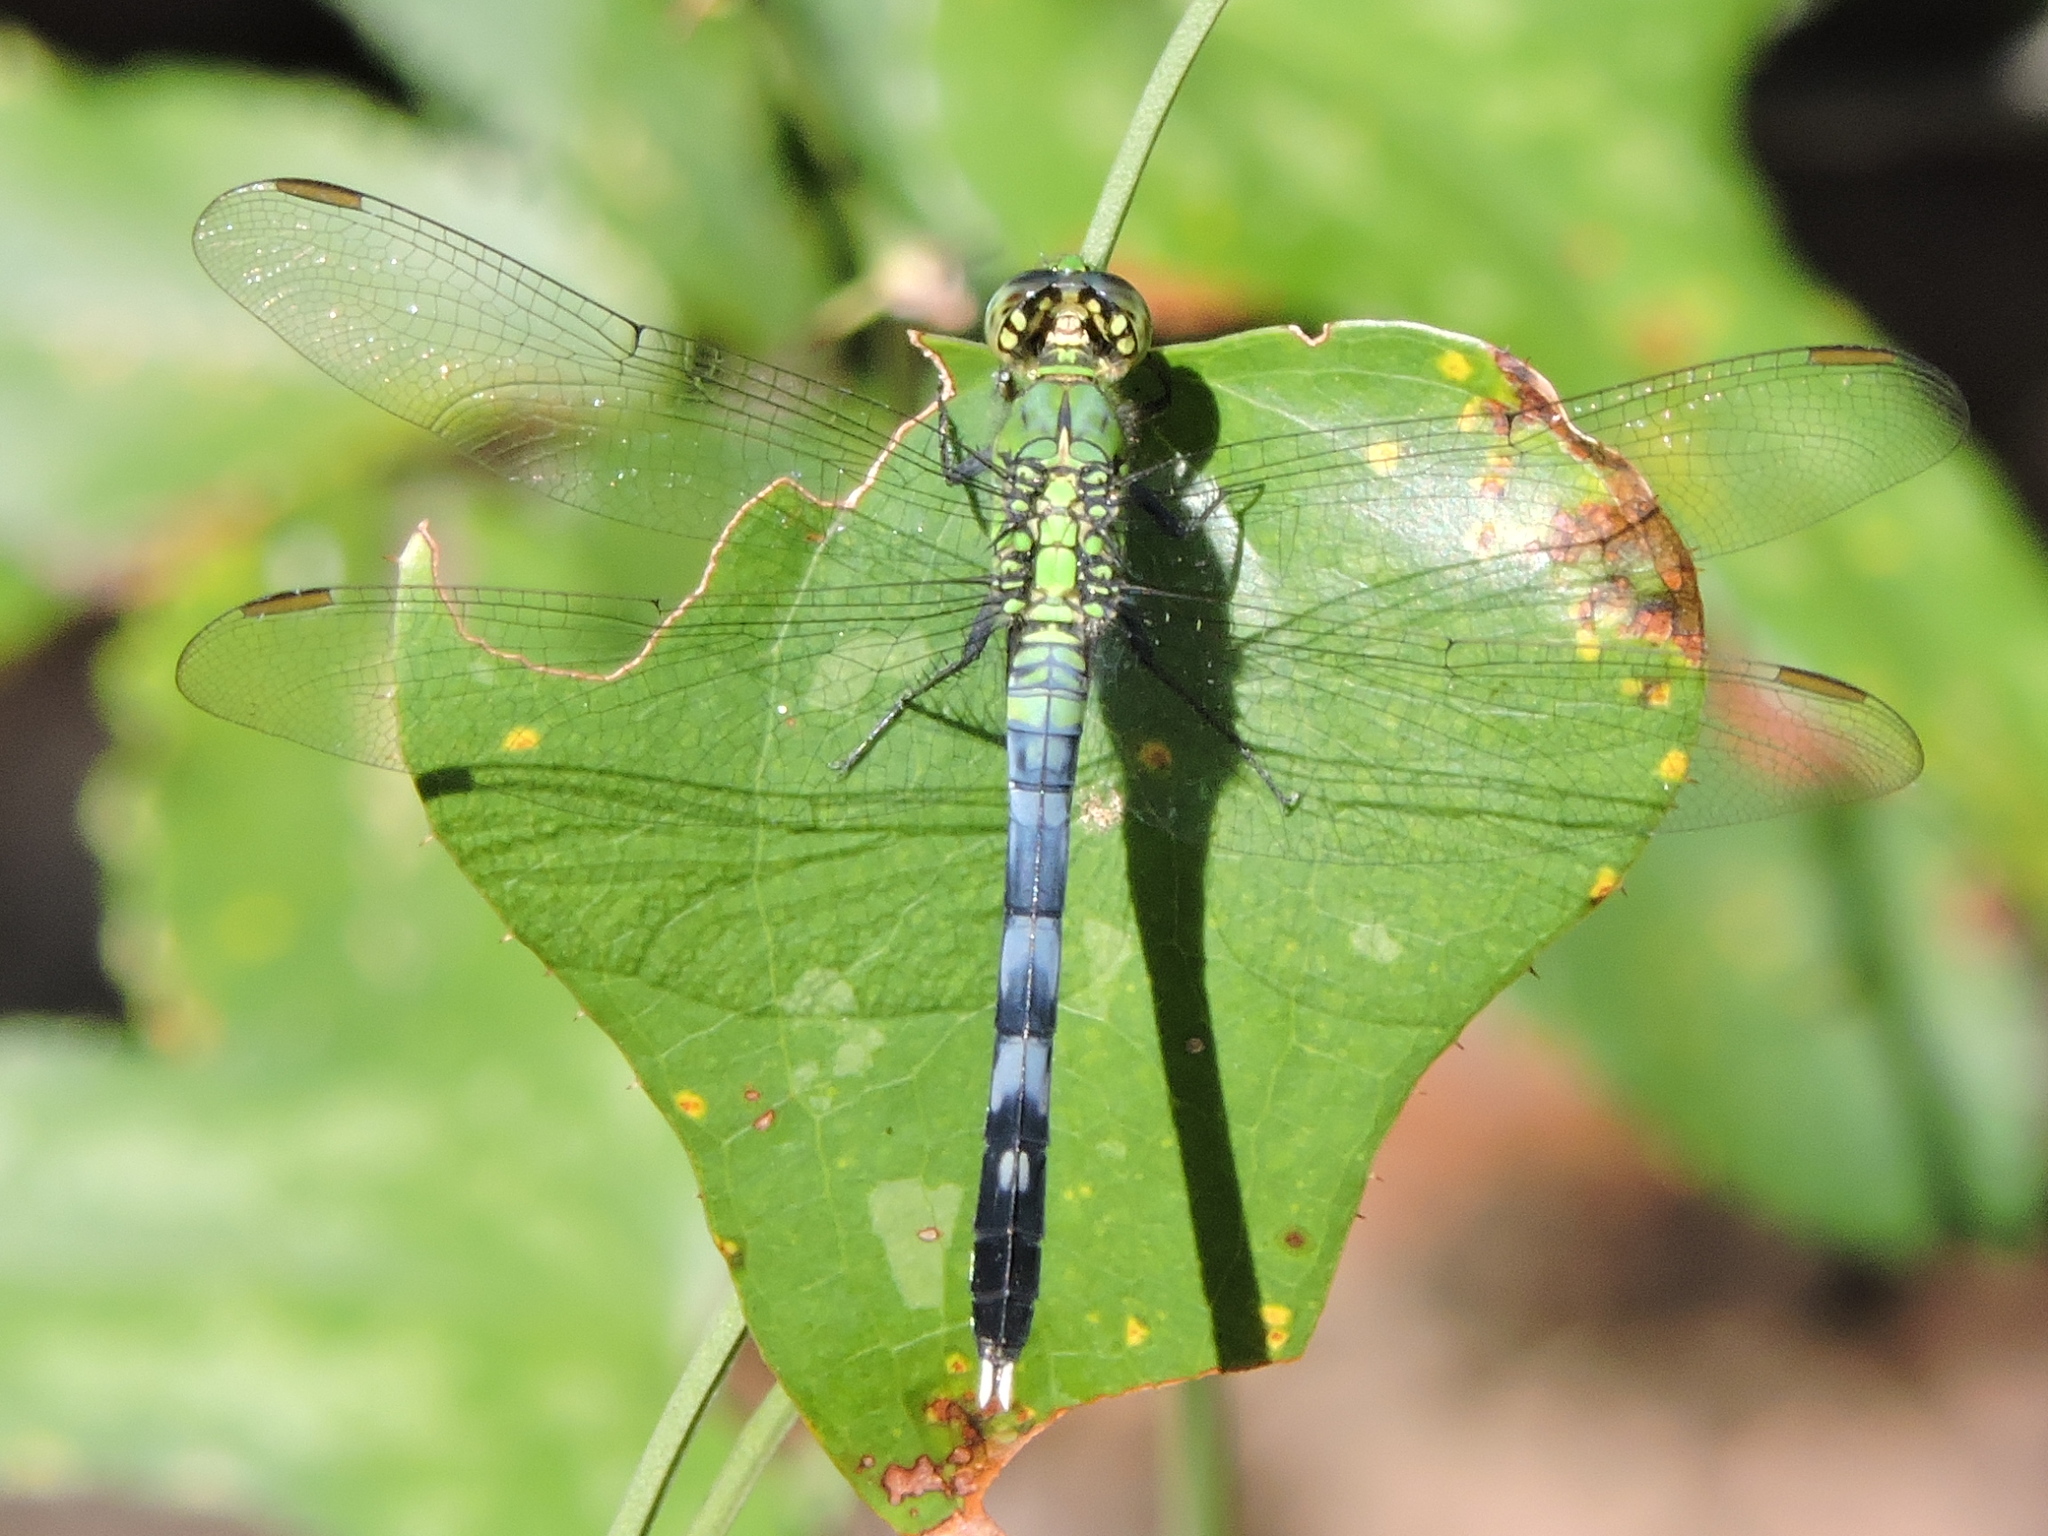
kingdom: Animalia
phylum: Arthropoda
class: Insecta
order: Odonata
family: Libellulidae
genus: Erythemis
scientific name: Erythemis simplicicollis
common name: Eastern pondhawk
